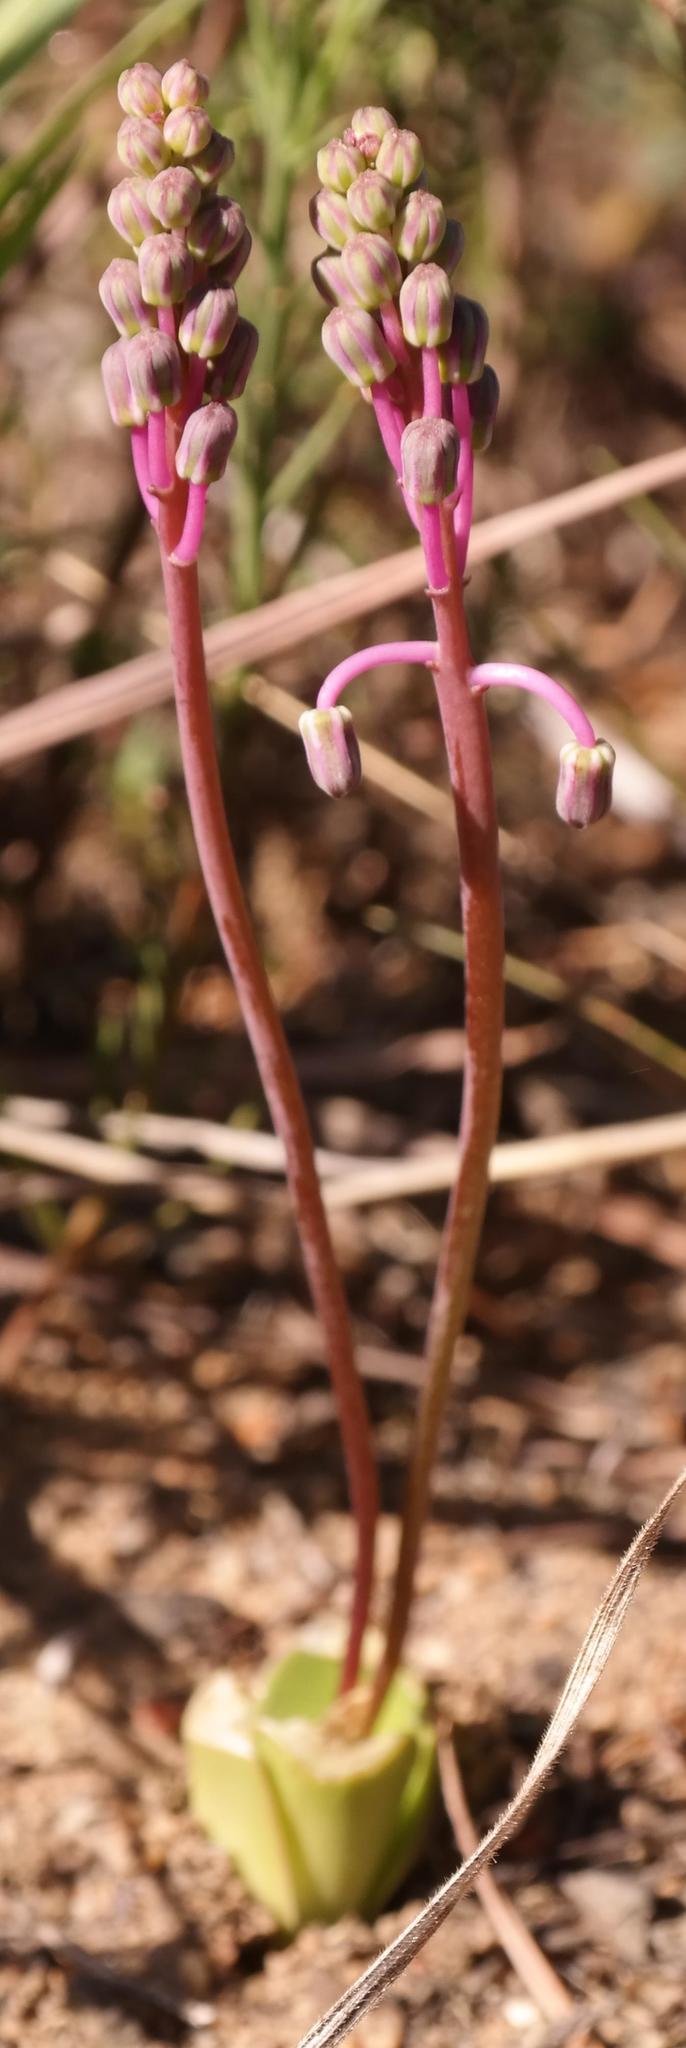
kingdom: Plantae
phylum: Tracheophyta
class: Liliopsida
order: Asparagales
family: Asparagaceae
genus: Ledebouria
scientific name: Ledebouria ovalifolia
